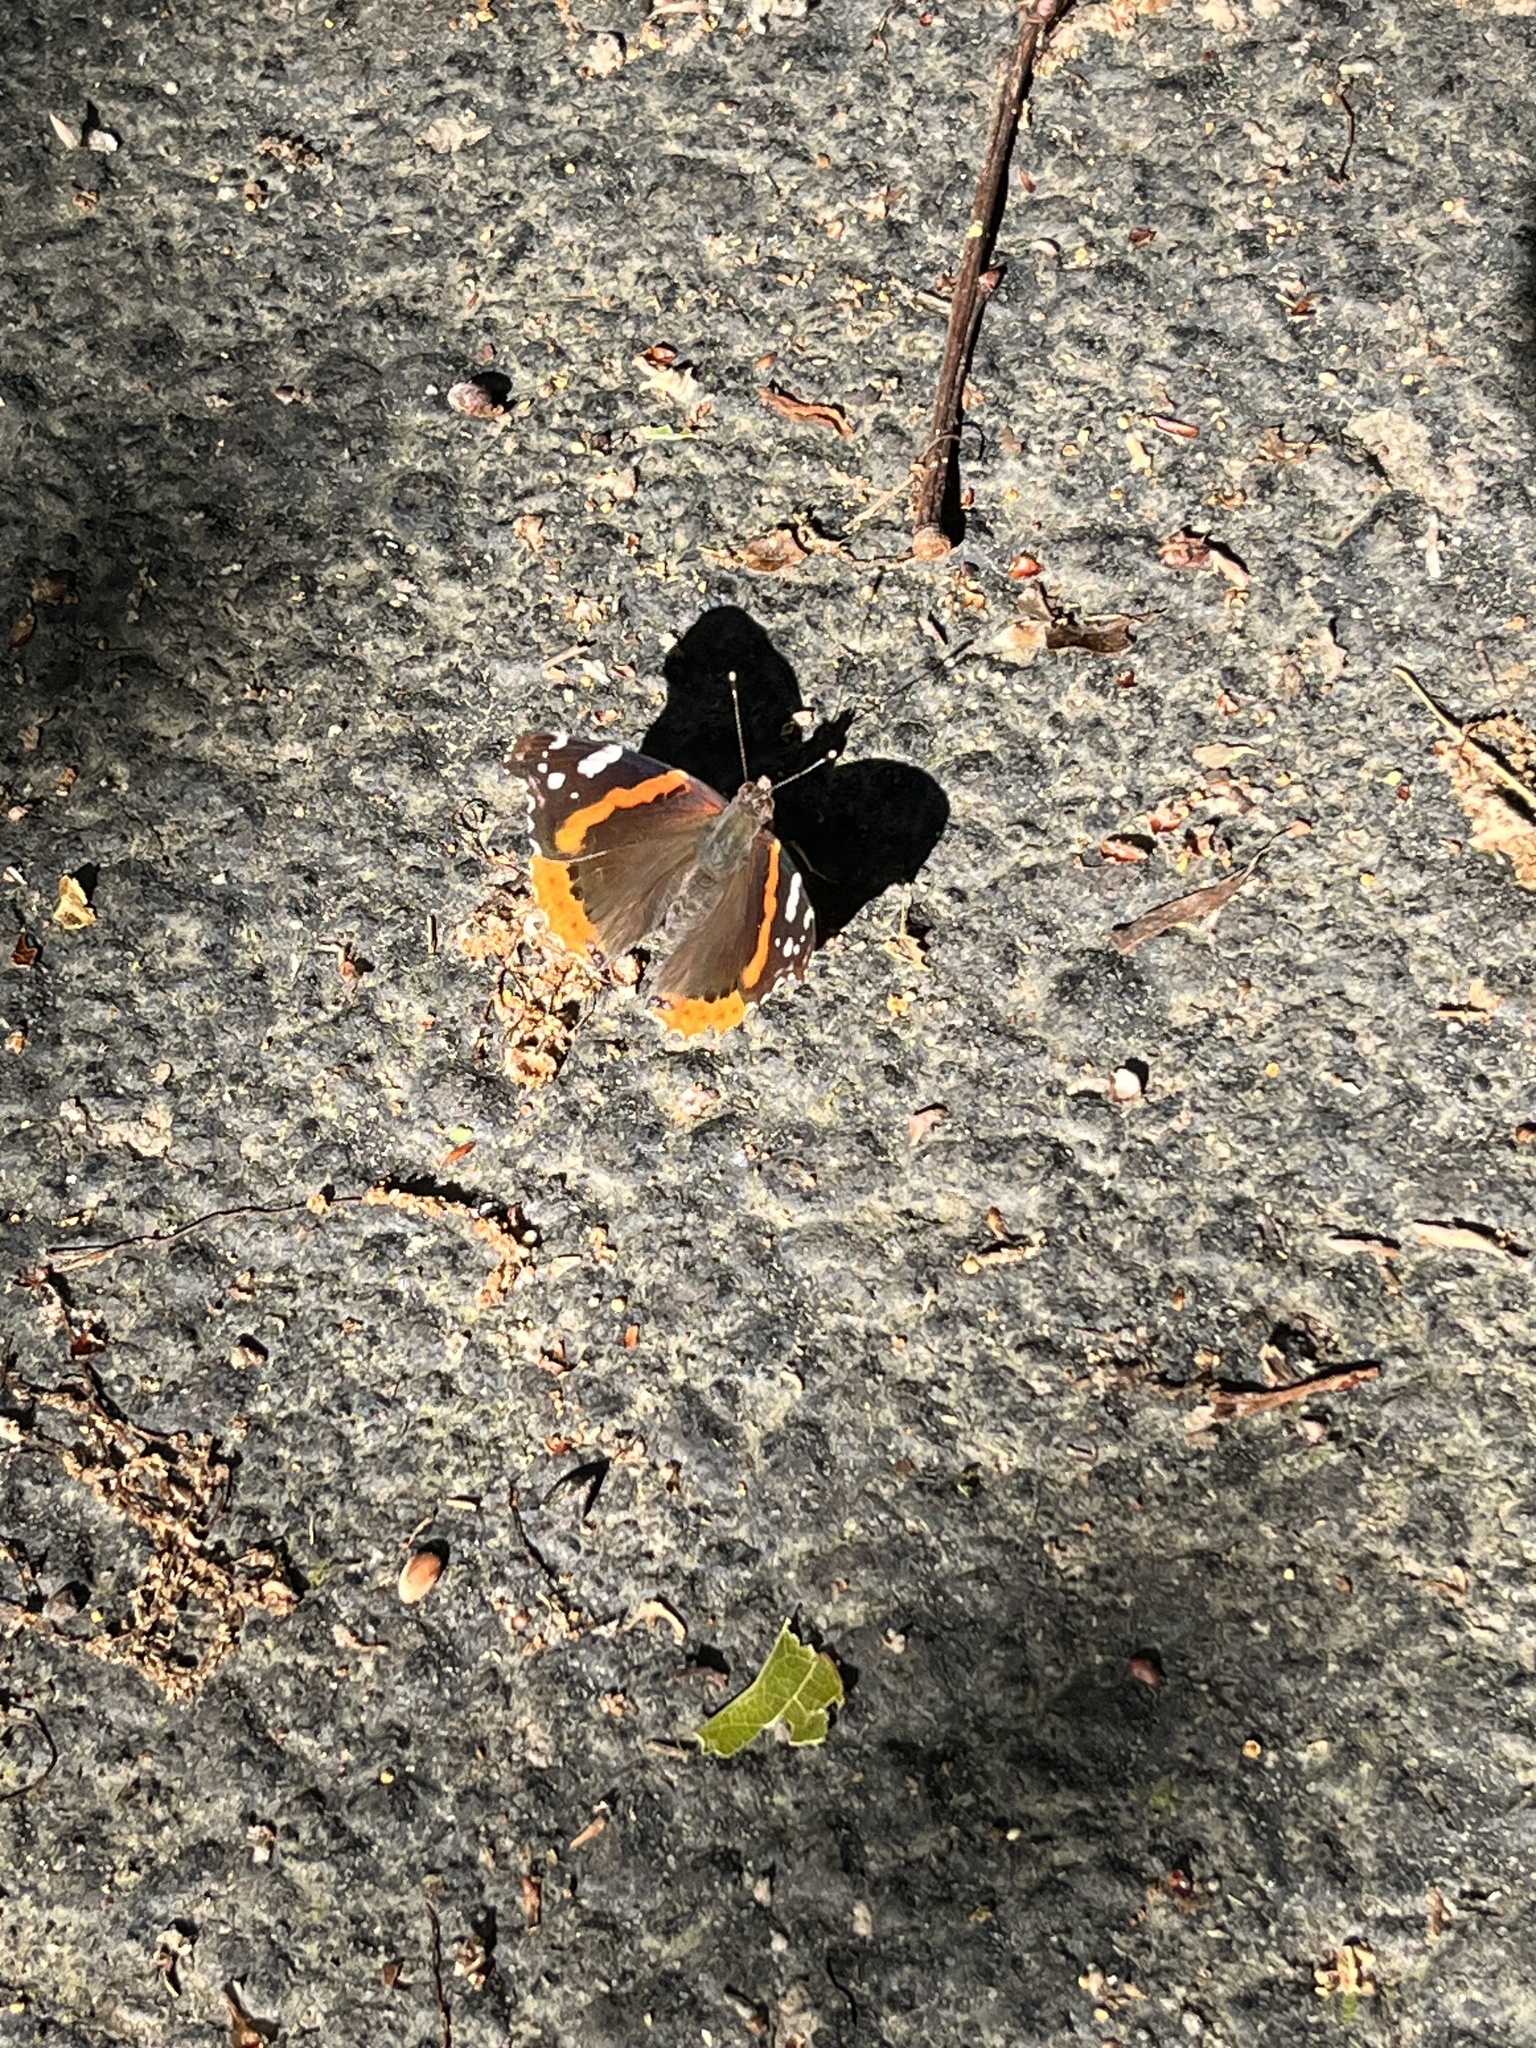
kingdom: Animalia
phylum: Arthropoda
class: Insecta
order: Lepidoptera
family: Nymphalidae
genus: Vanessa
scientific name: Vanessa atalanta
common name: Red admiral
